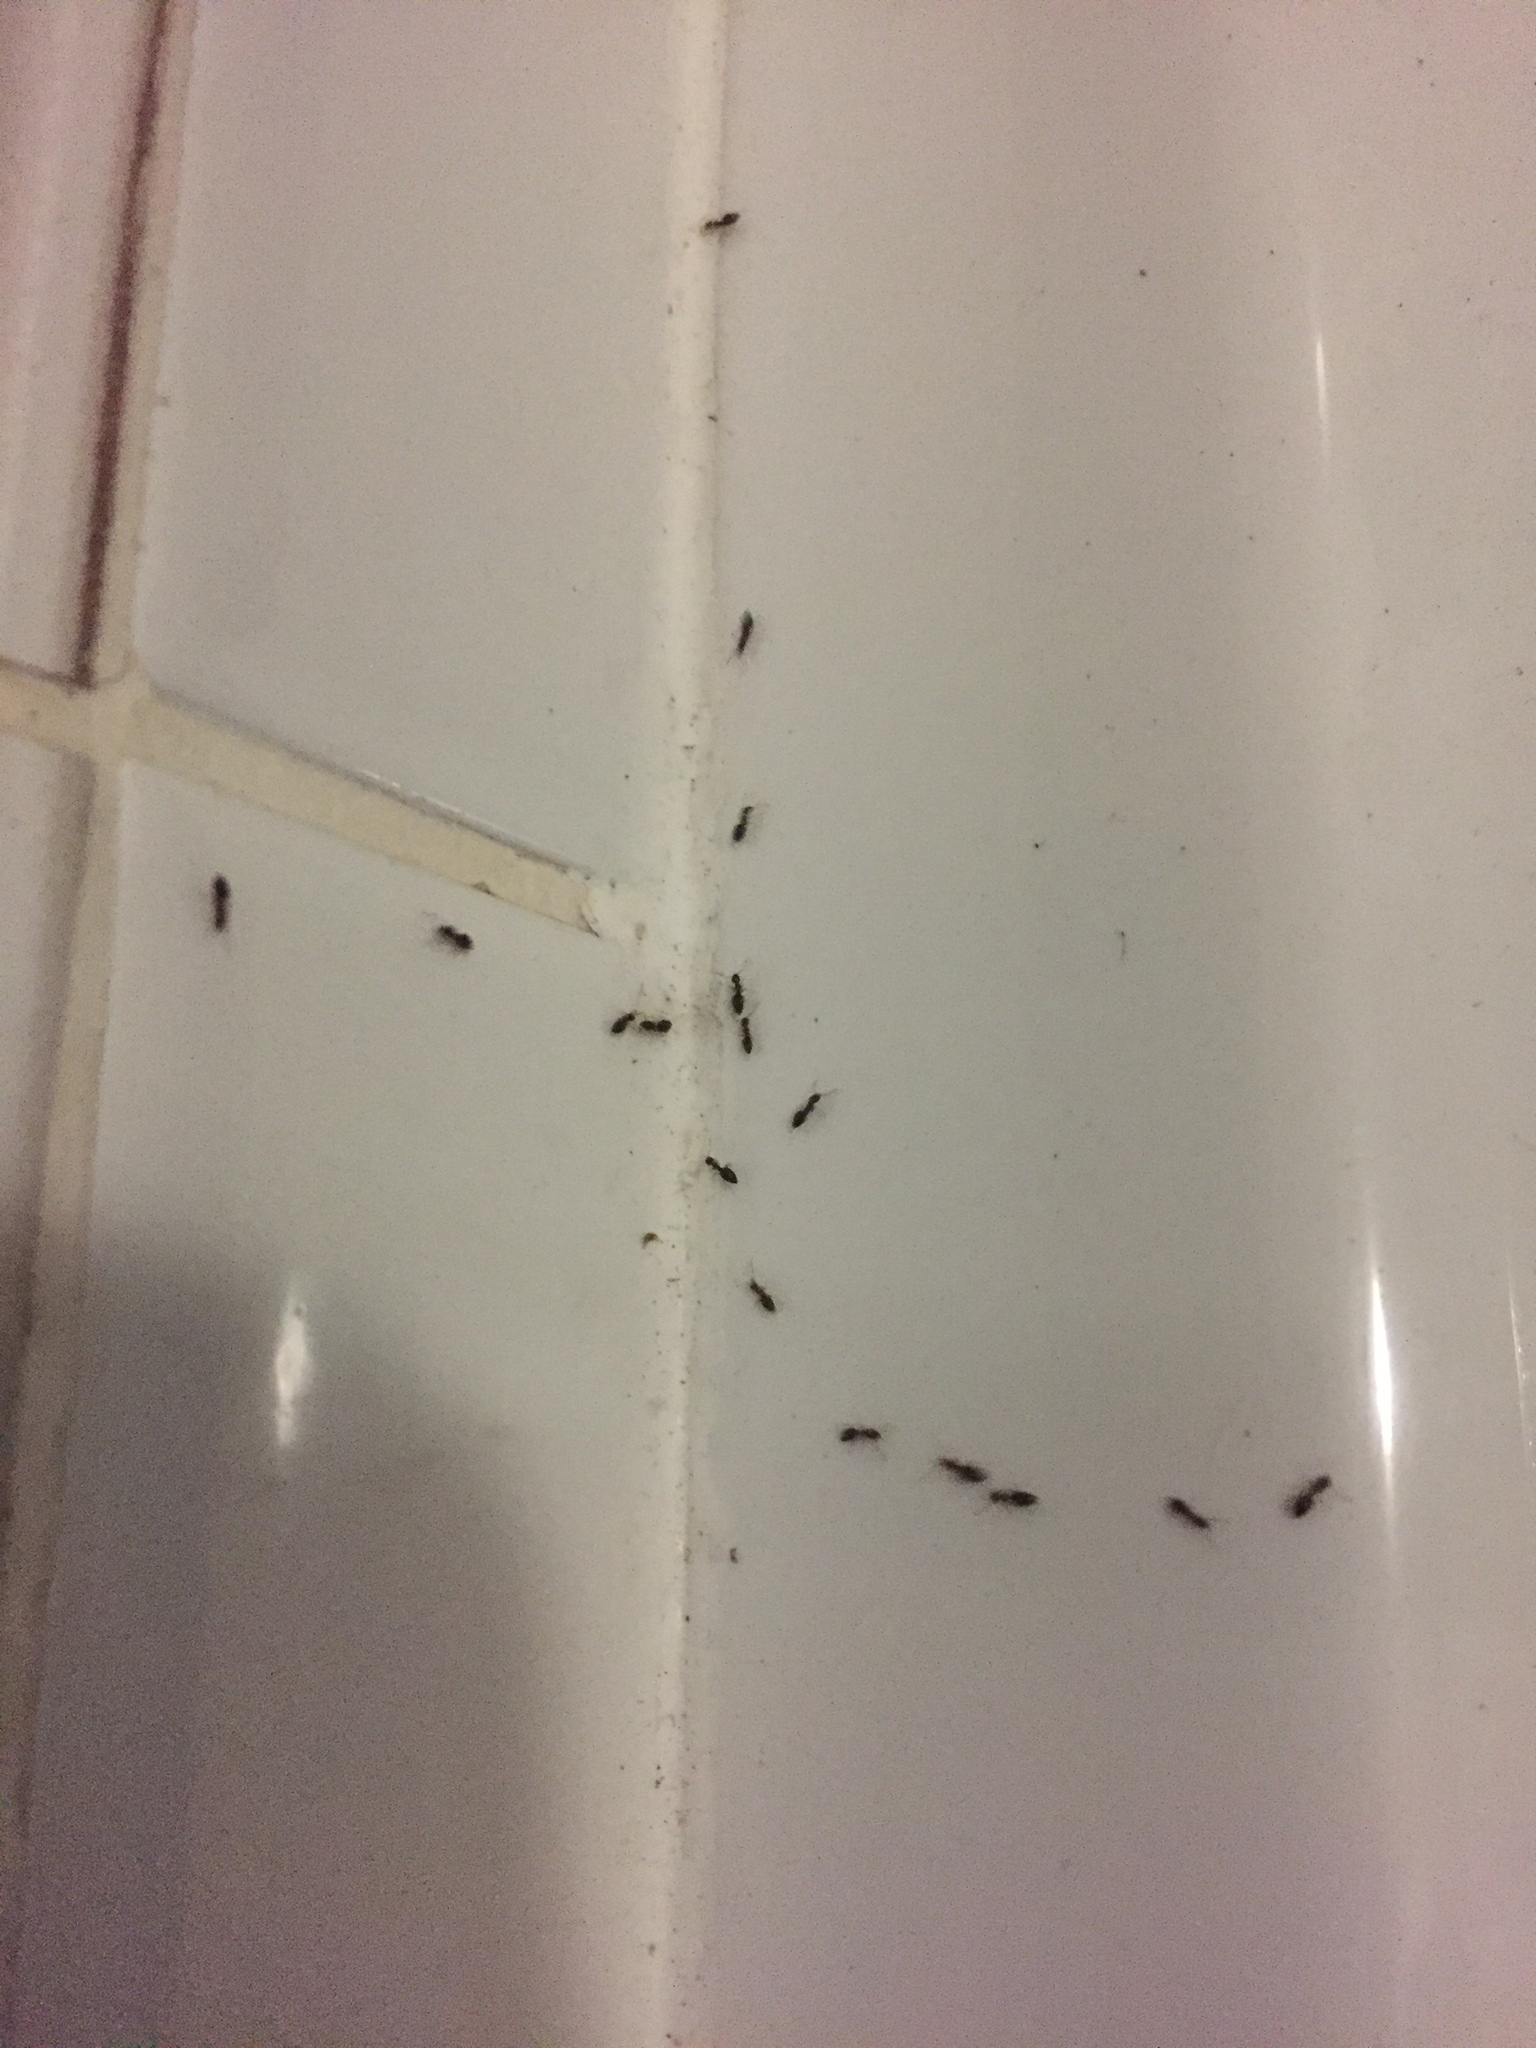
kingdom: Animalia
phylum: Arthropoda
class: Insecta
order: Hymenoptera
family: Formicidae
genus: Tapinoma
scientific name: Tapinoma pallipes
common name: Ant
